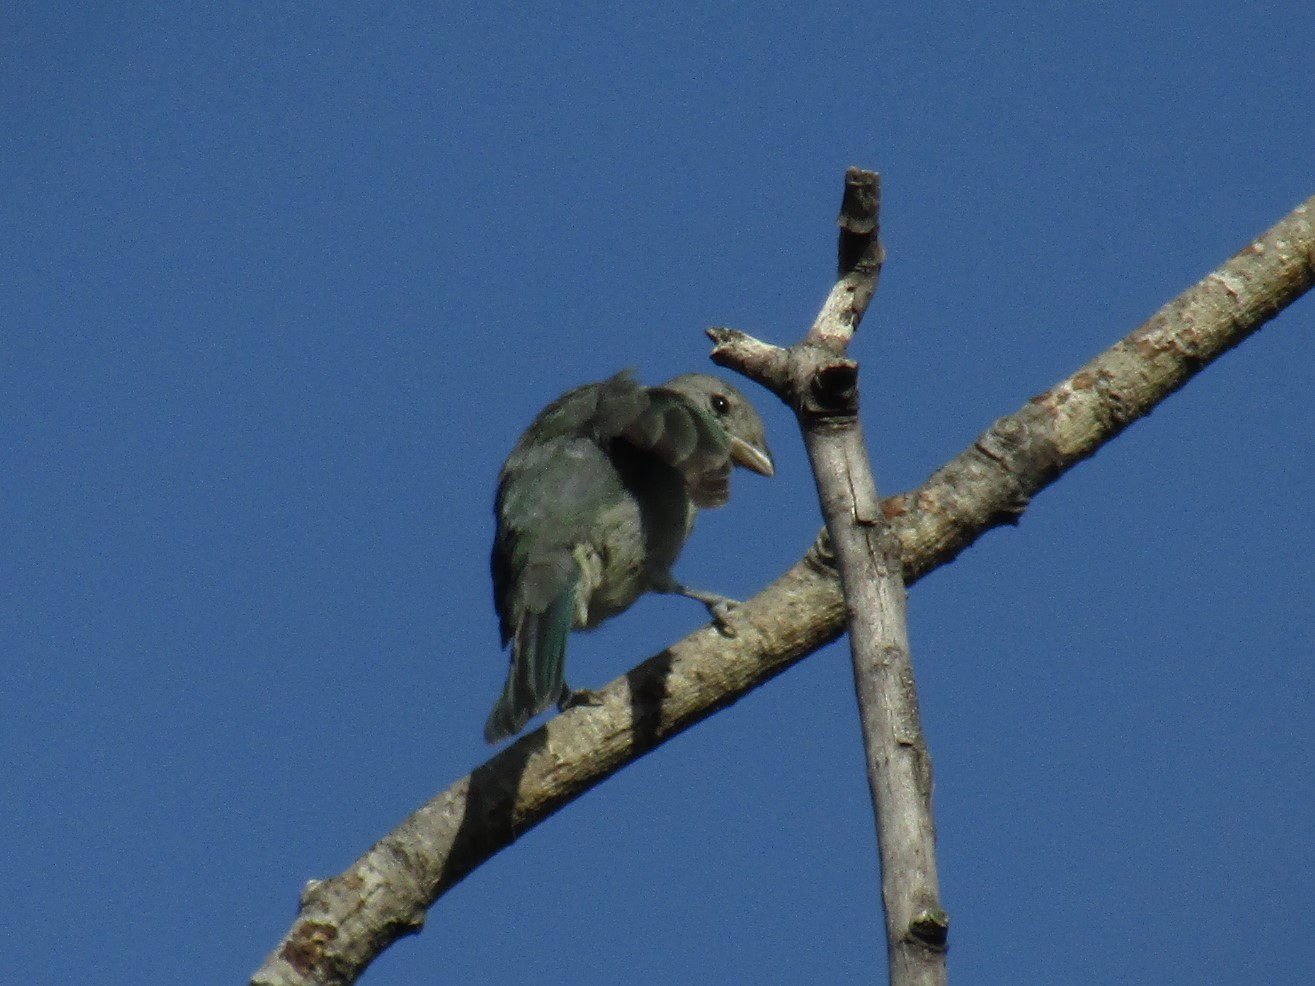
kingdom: Animalia
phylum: Chordata
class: Aves
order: Passeriformes
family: Thraupidae
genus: Thraupis
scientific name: Thraupis sayaca
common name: Sayaca tanager
